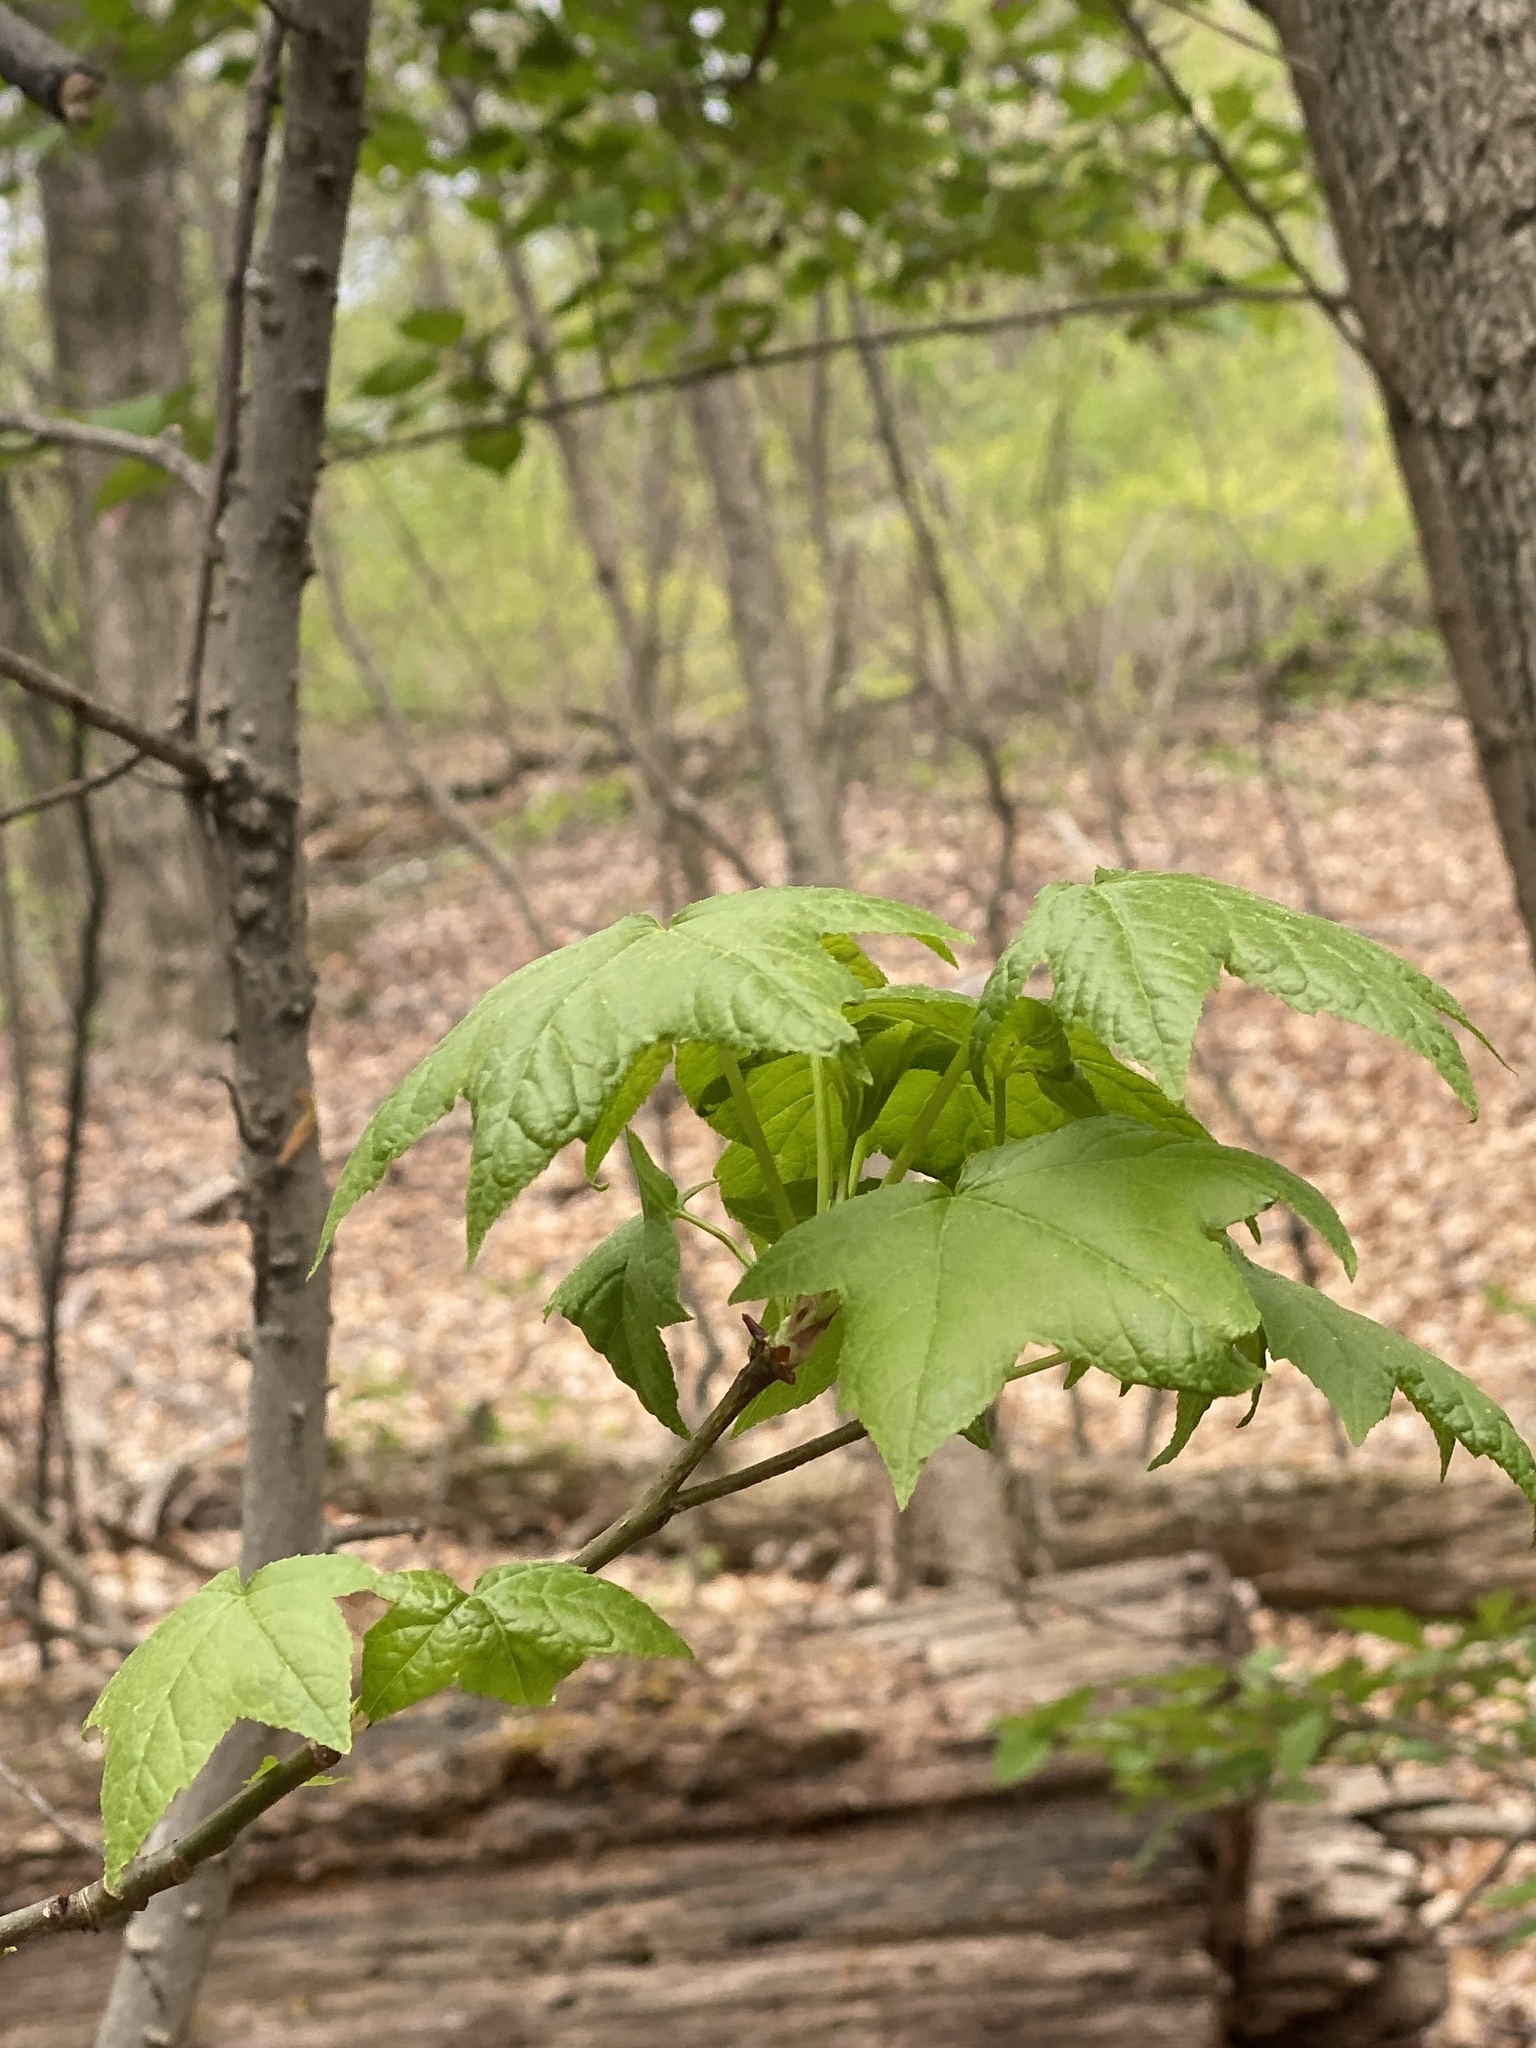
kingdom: Plantae
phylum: Tracheophyta
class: Magnoliopsida
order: Saxifragales
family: Altingiaceae
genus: Liquidambar
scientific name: Liquidambar styraciflua
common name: Sweet gum
